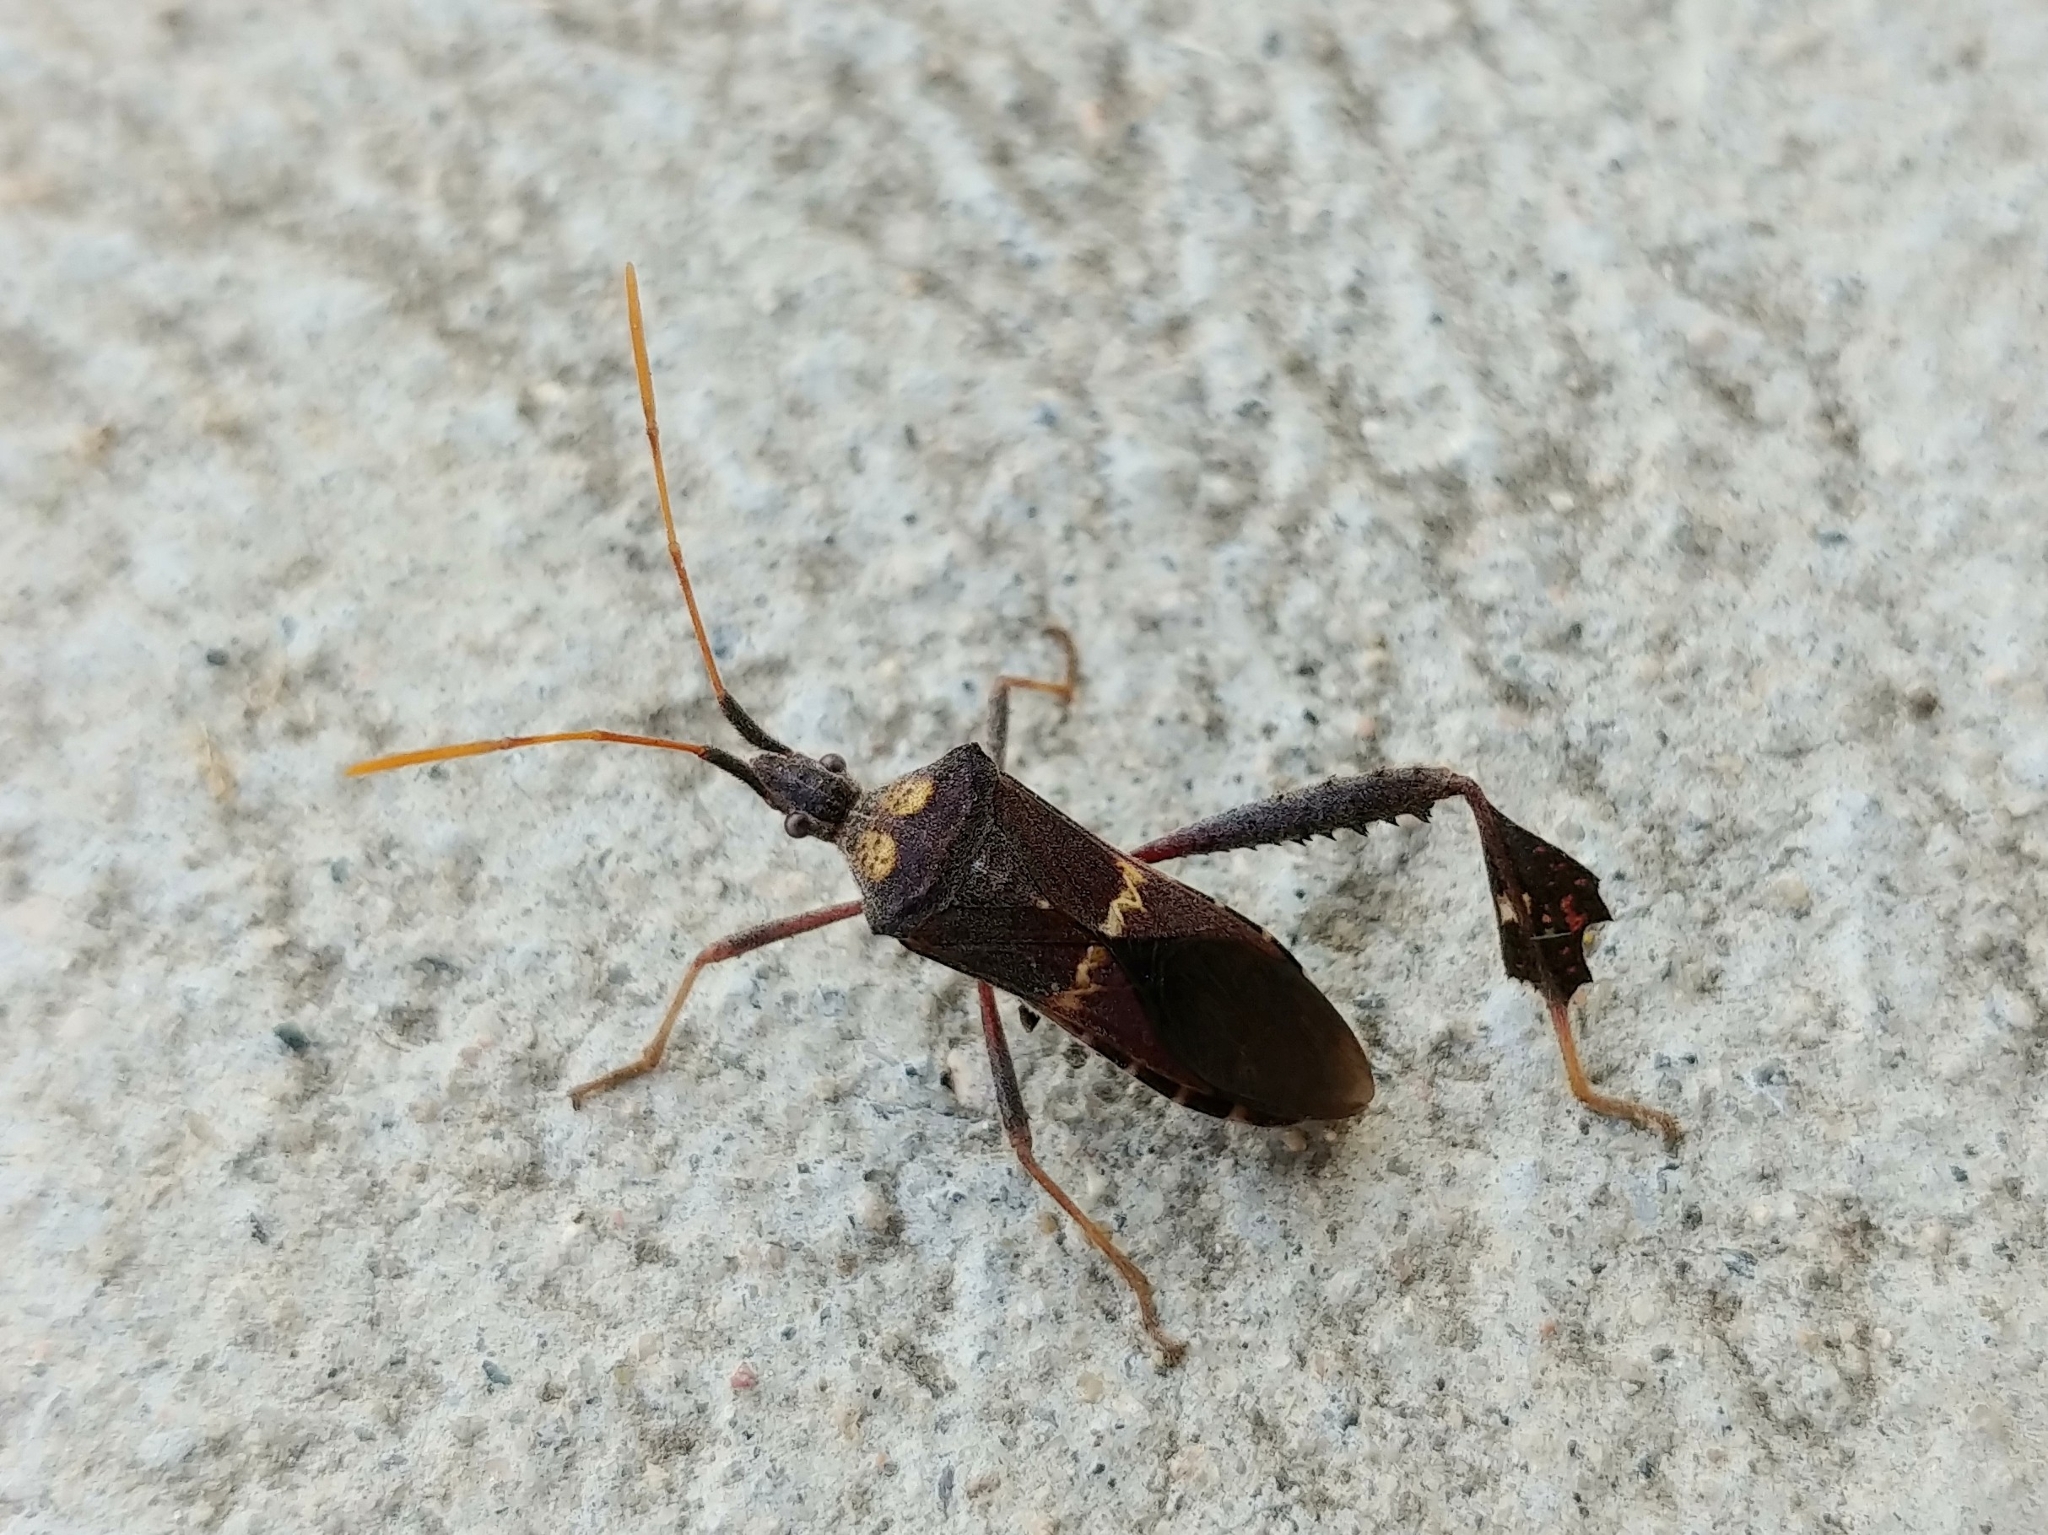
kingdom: Animalia
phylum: Arthropoda
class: Insecta
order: Hemiptera
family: Coreidae
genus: Leptoglossus
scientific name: Leptoglossus zonatus
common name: Large-legged bug
